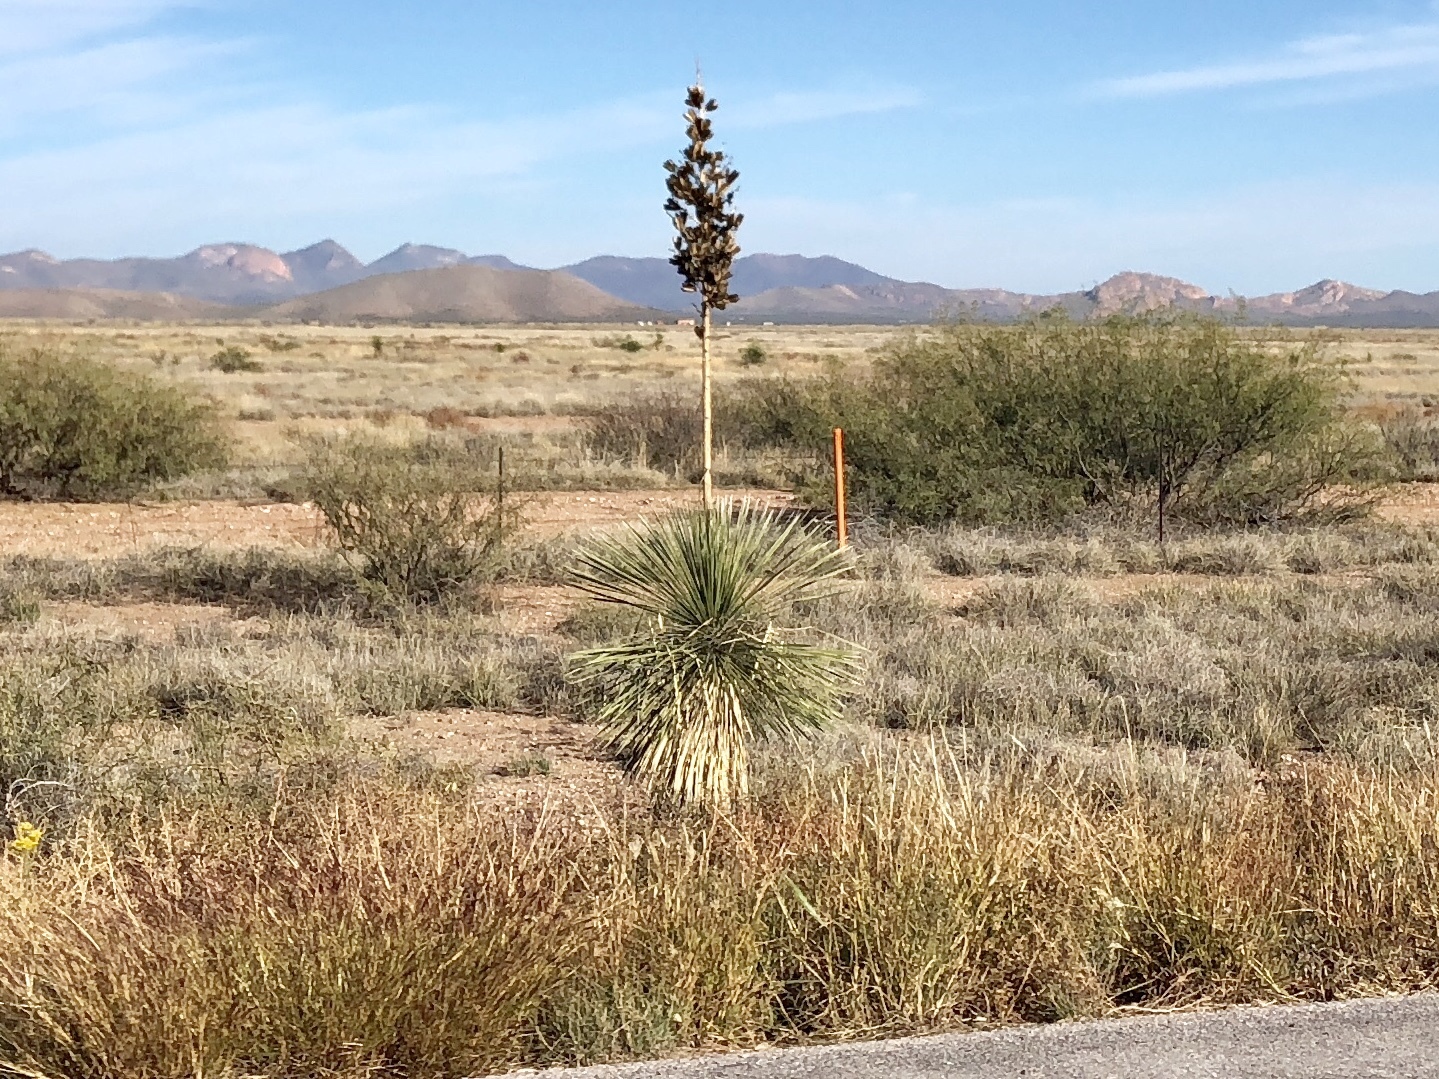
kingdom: Plantae
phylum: Tracheophyta
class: Liliopsida
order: Asparagales
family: Asparagaceae
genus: Yucca
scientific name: Yucca elata
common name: Palmella
